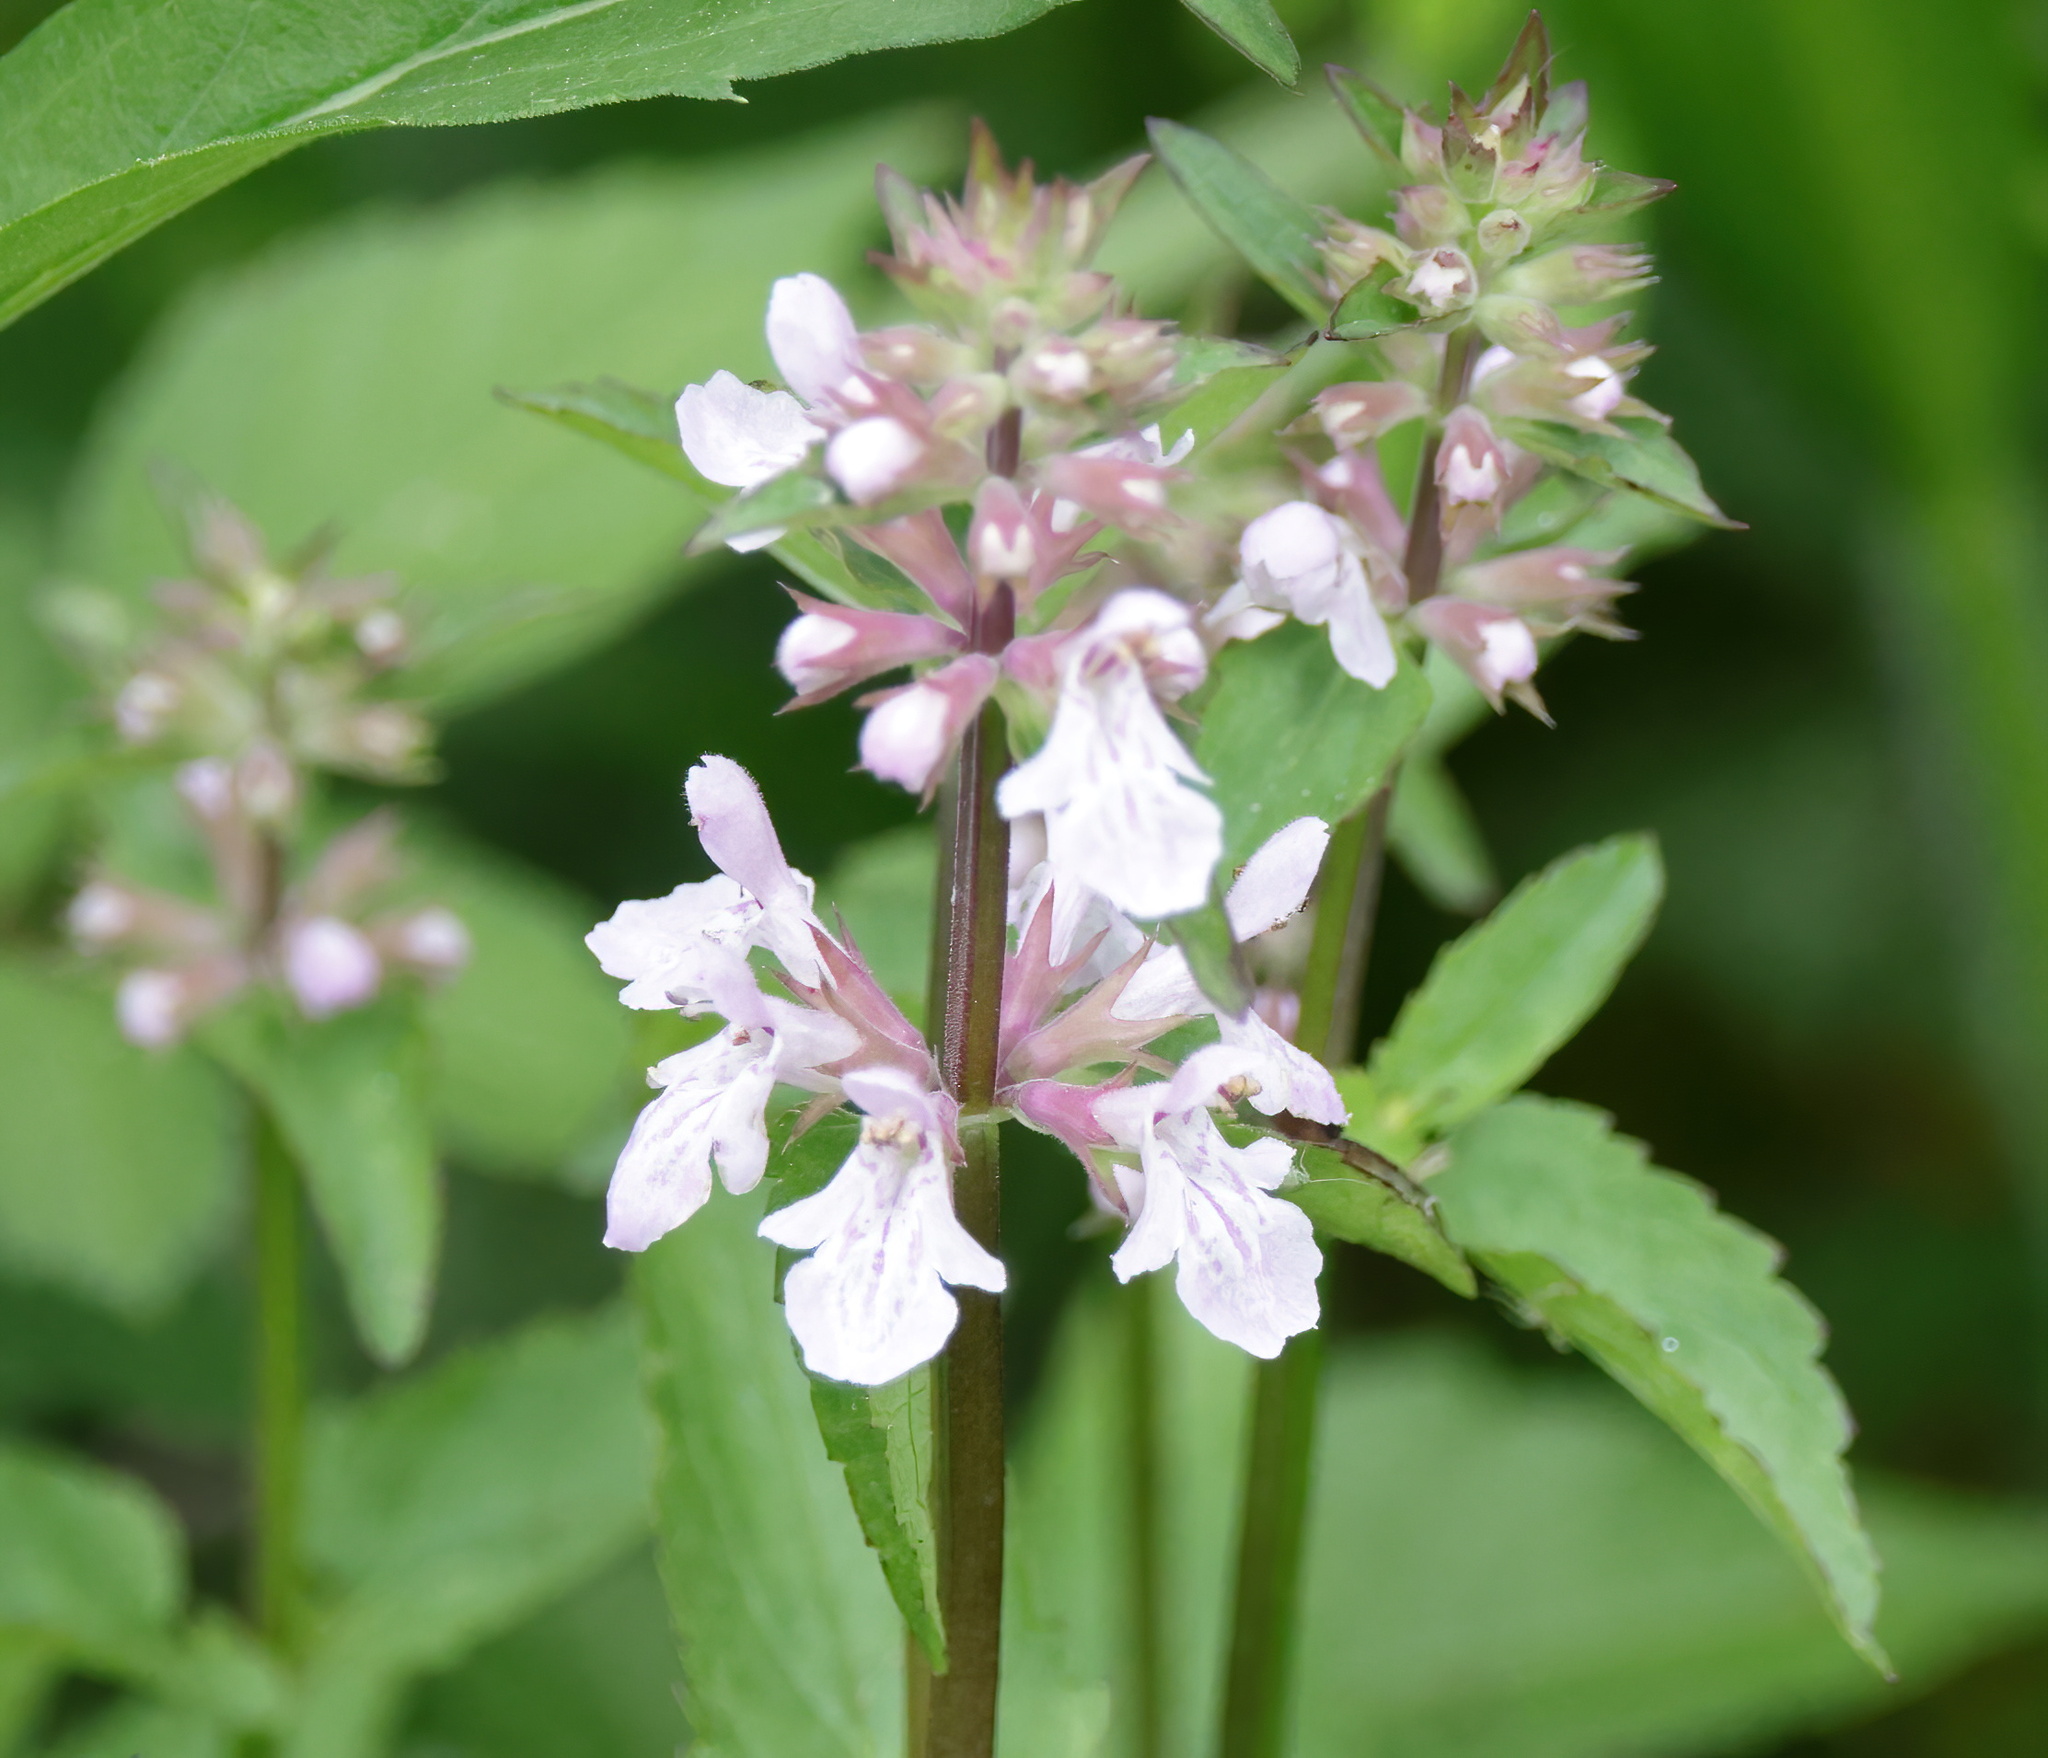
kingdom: Plantae
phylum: Tracheophyta
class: Magnoliopsida
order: Lamiales
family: Lamiaceae
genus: Stachys
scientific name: Stachys floridana
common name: Florida betony
